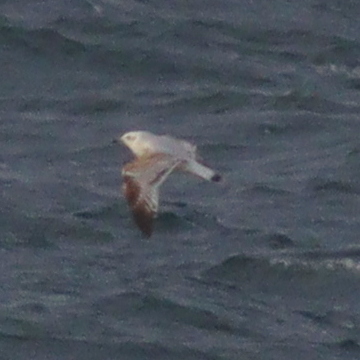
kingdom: Animalia
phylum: Chordata
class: Aves
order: Charadriiformes
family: Laridae
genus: Ichthyaetus
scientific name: Ichthyaetus melanocephalus
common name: Mediterranean gull
